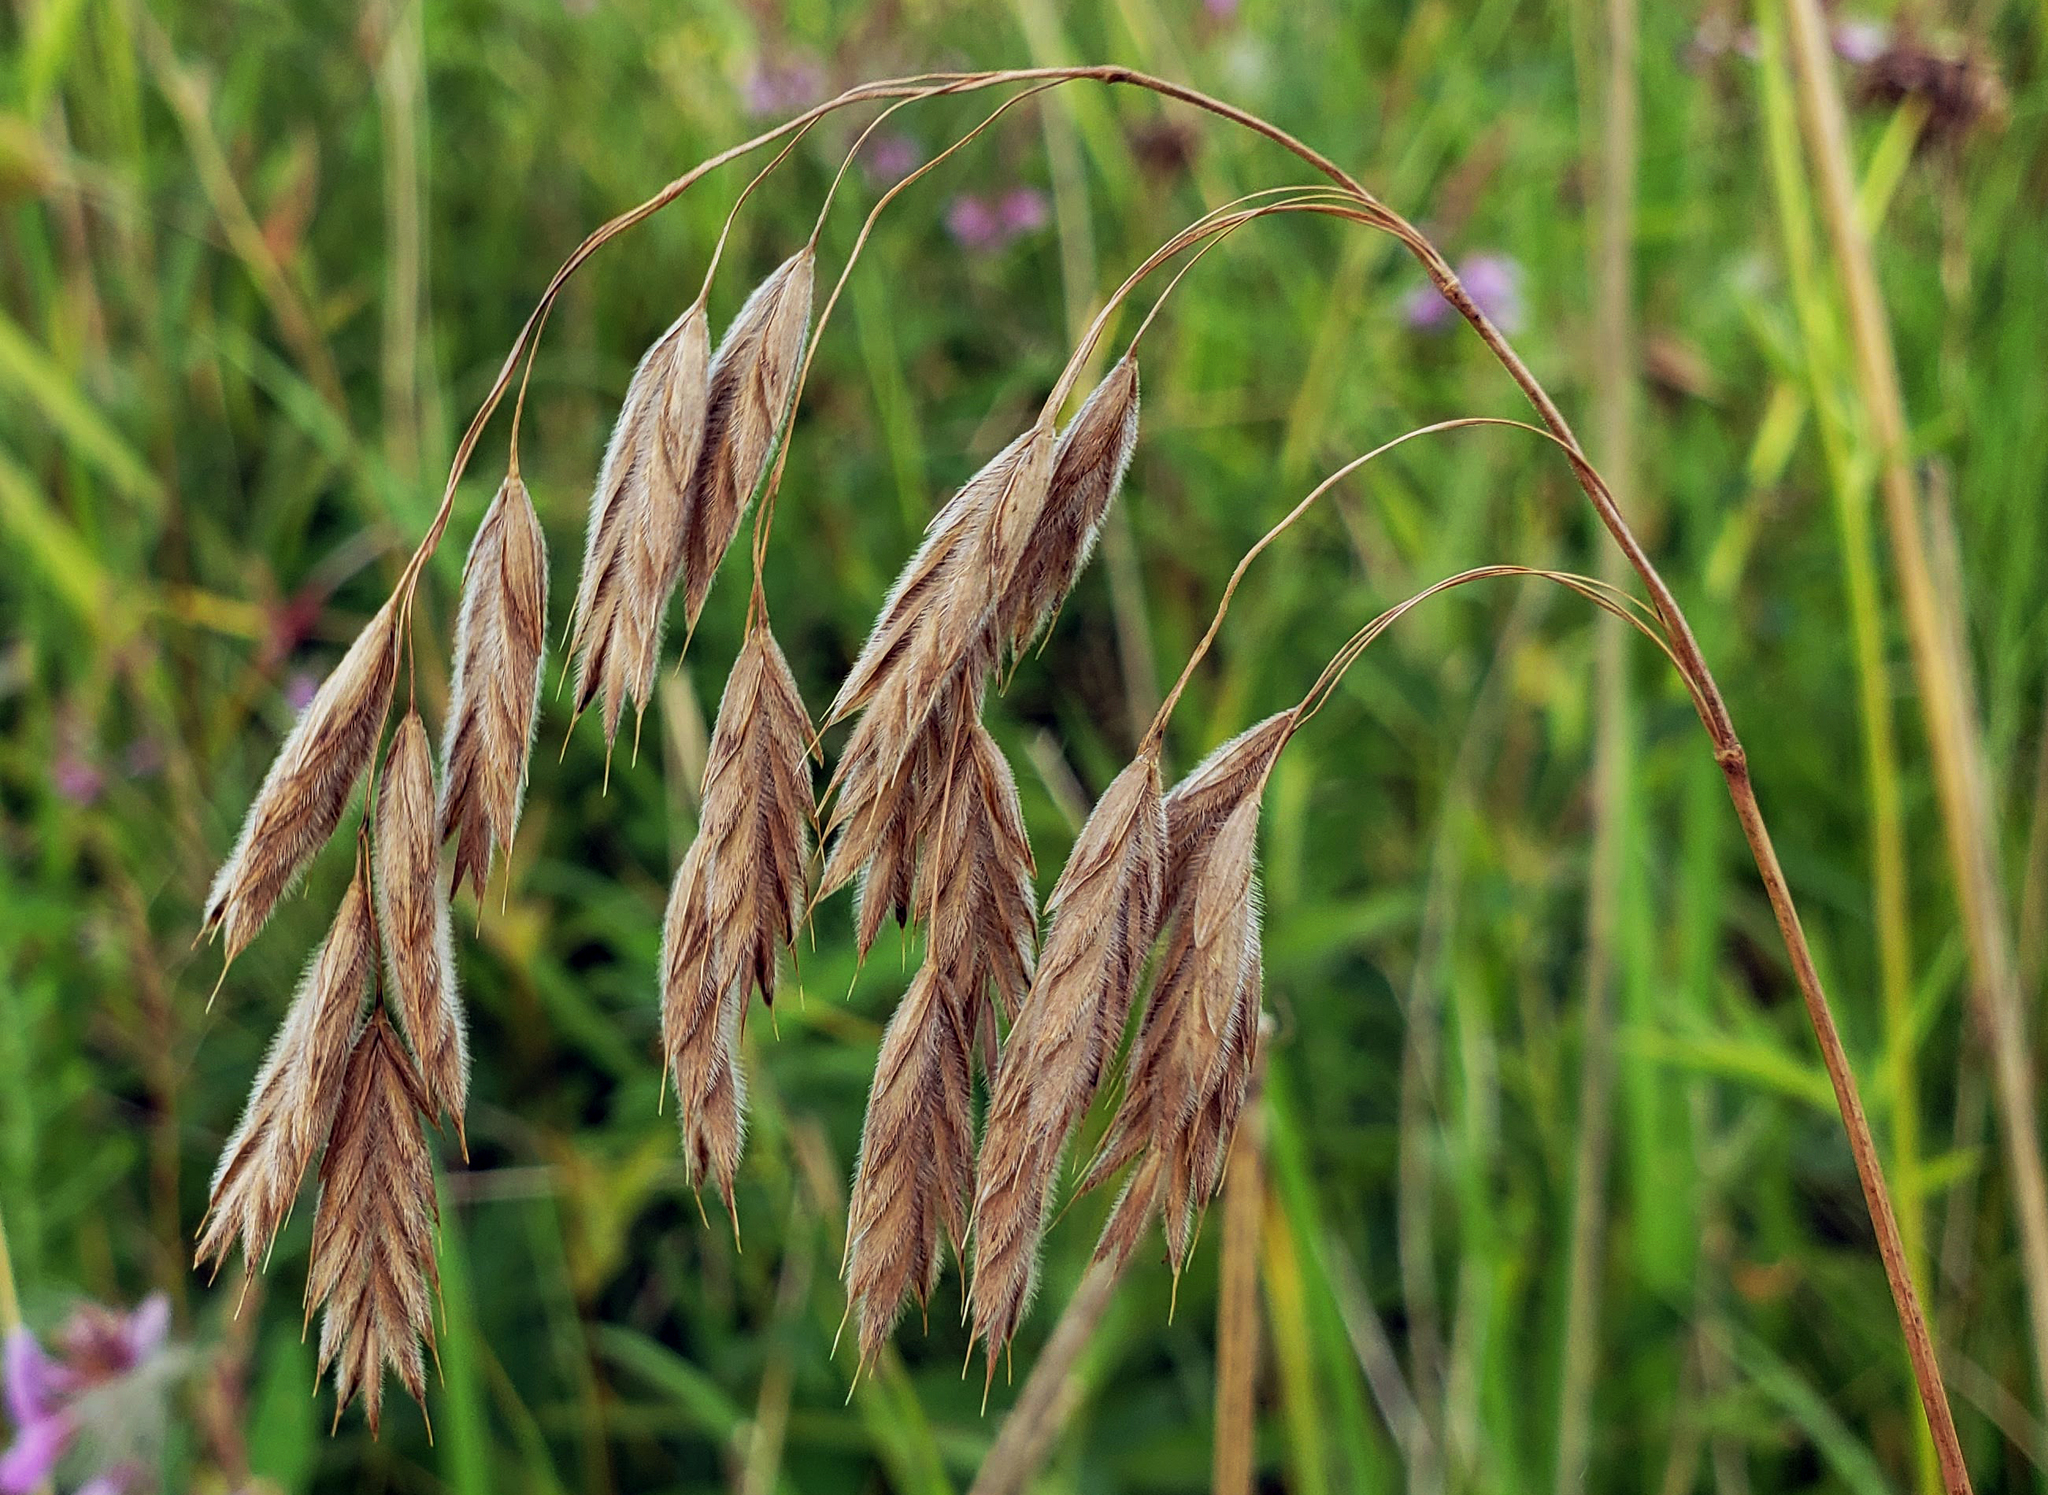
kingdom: Plantae
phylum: Tracheophyta
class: Liliopsida
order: Poales
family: Poaceae
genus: Bromus
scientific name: Bromus kalmii
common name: Kalm brome
